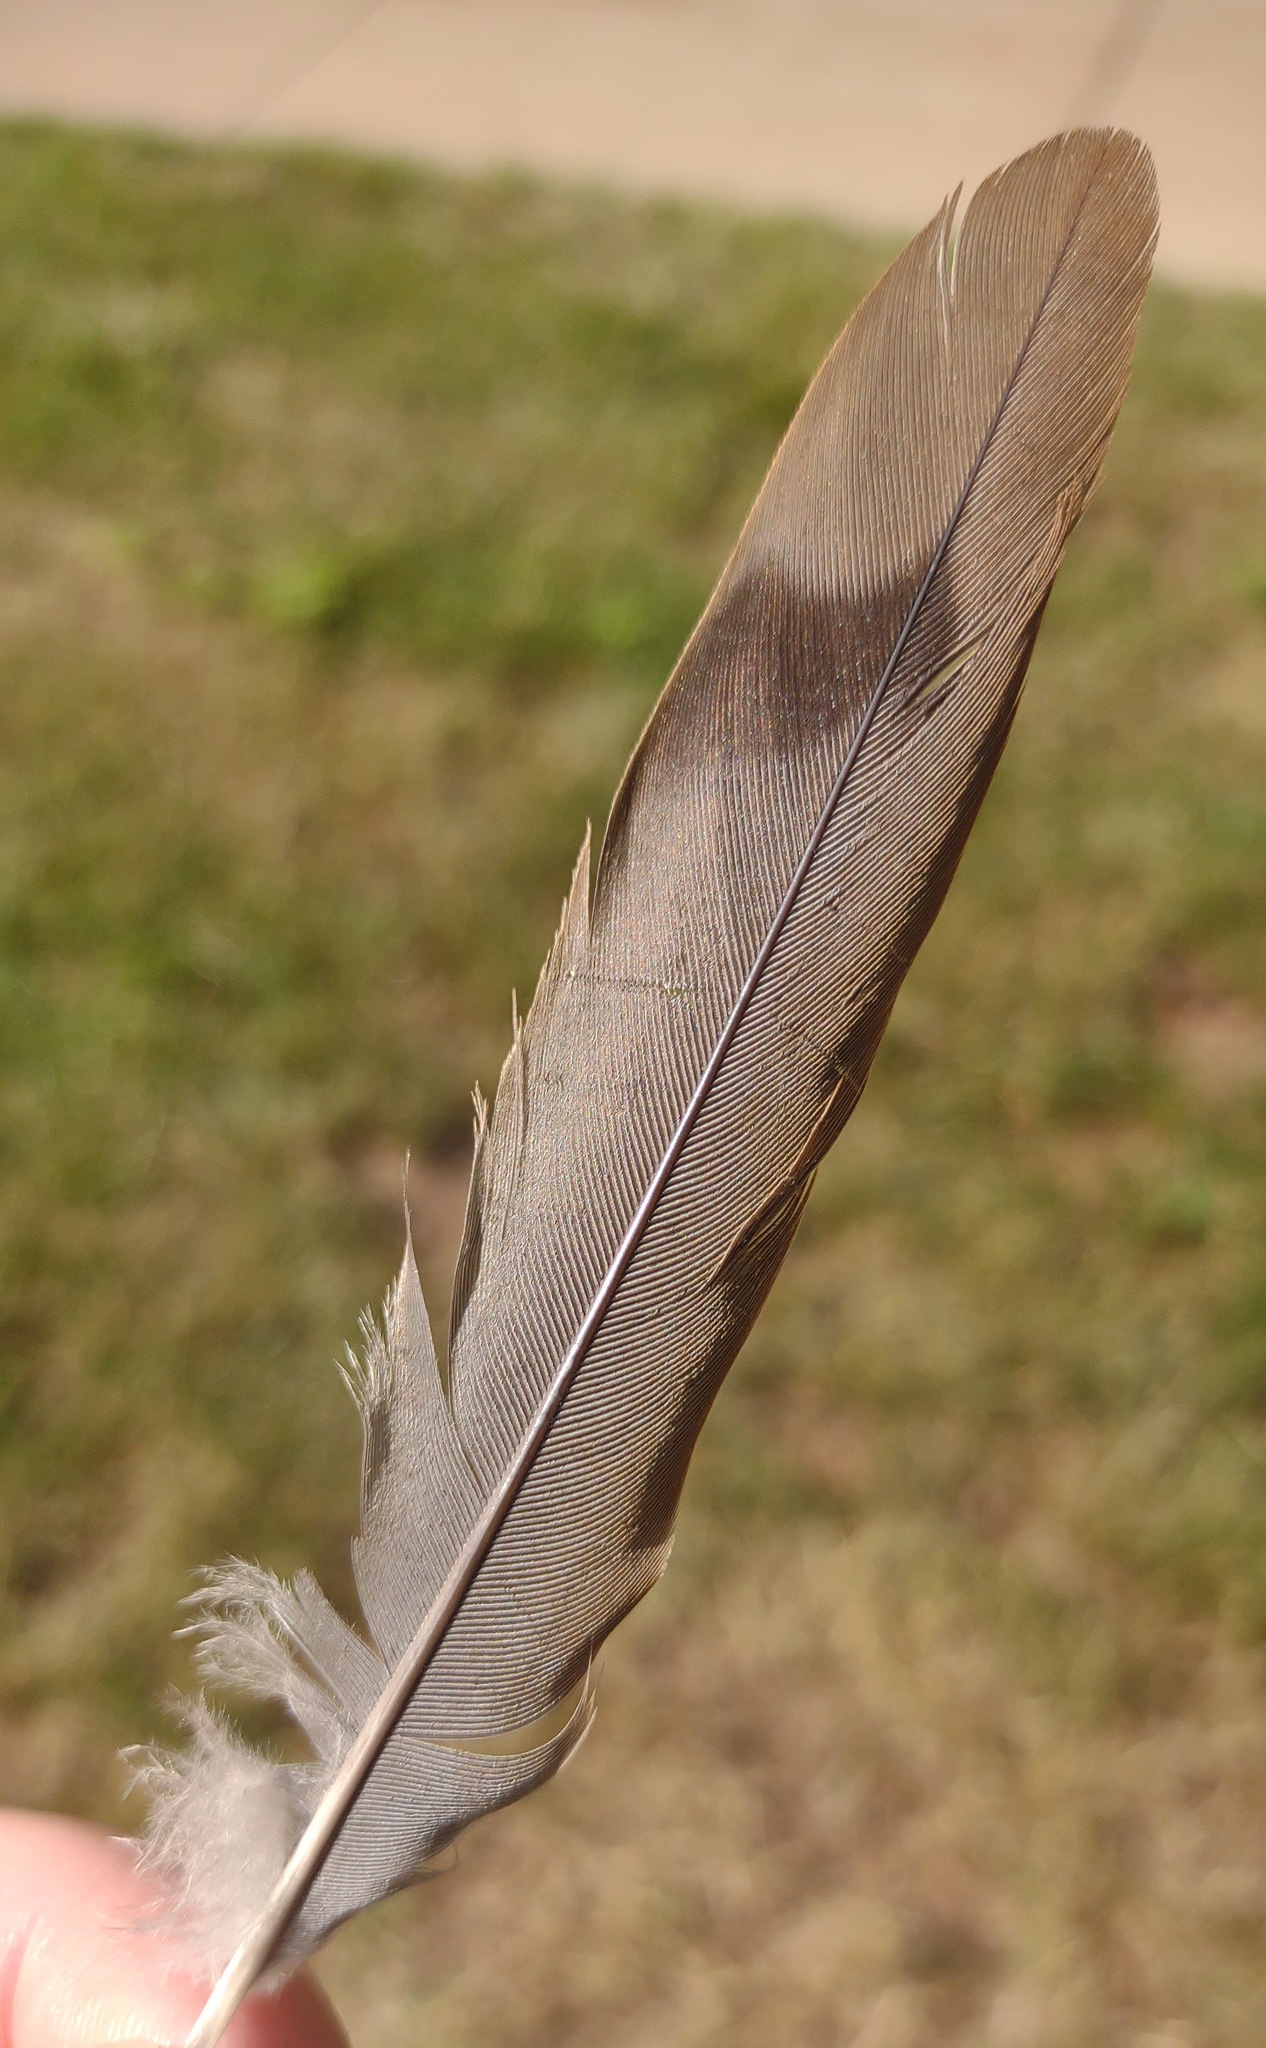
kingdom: Animalia
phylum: Chordata
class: Aves
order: Columbiformes
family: Columbidae
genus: Zenaida
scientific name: Zenaida macroura
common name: Mourning dove
